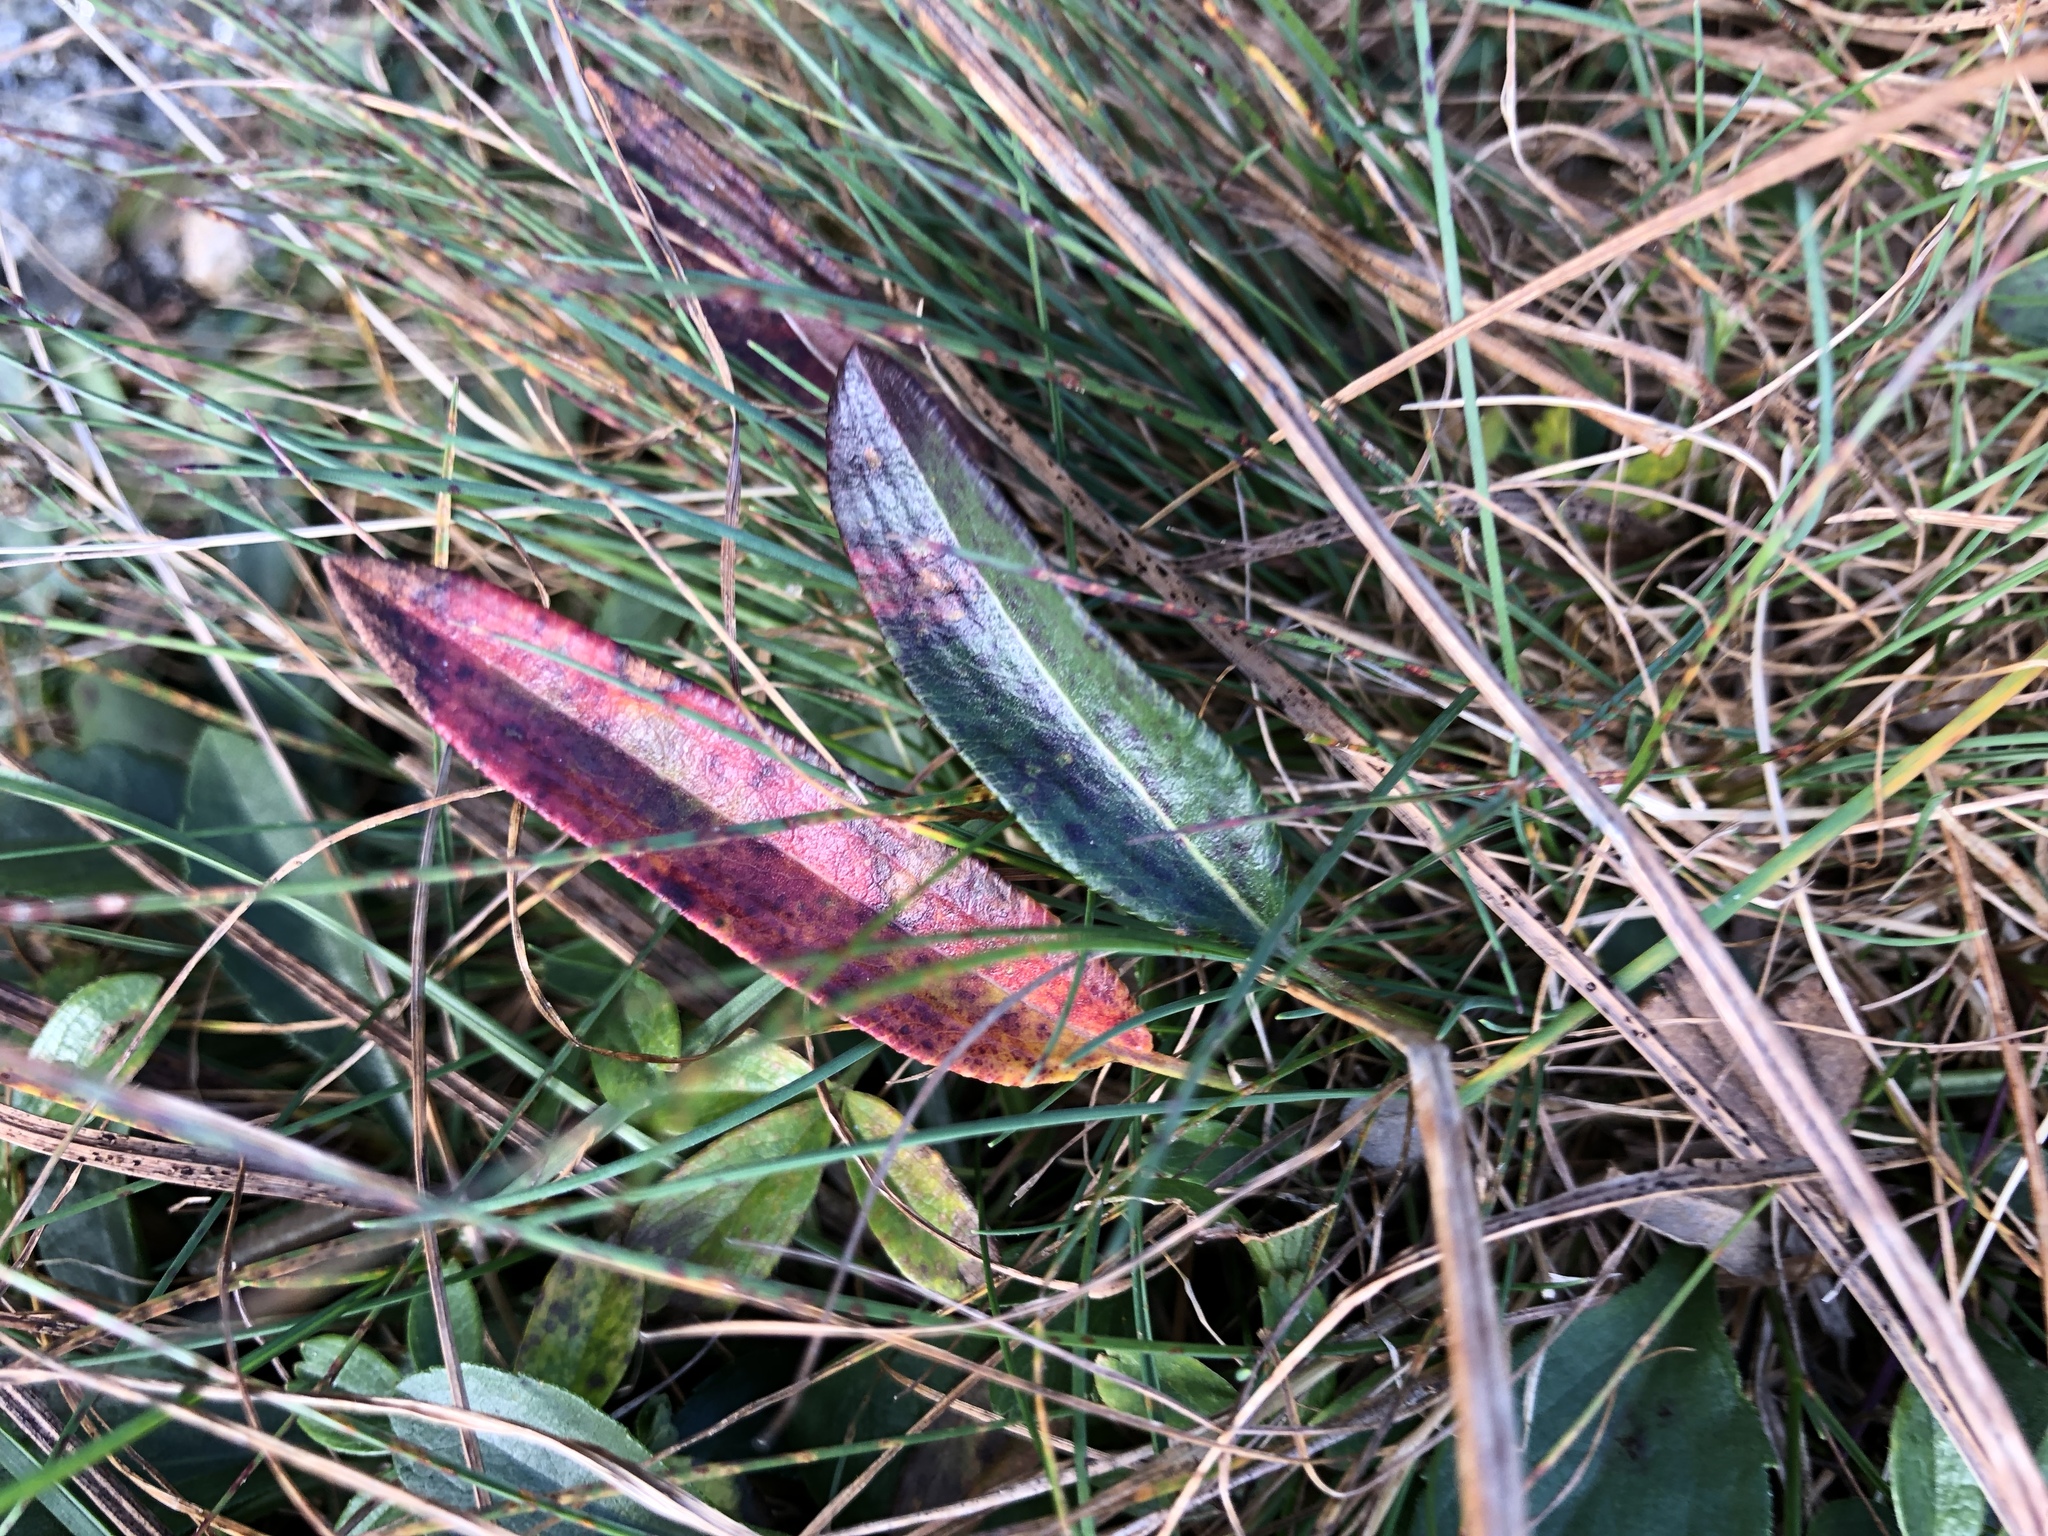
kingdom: Plantae
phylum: Tracheophyta
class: Magnoliopsida
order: Caryophyllales
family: Polygonaceae
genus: Bistorta
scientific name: Bistorta vivipara
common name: Alpine bistort
